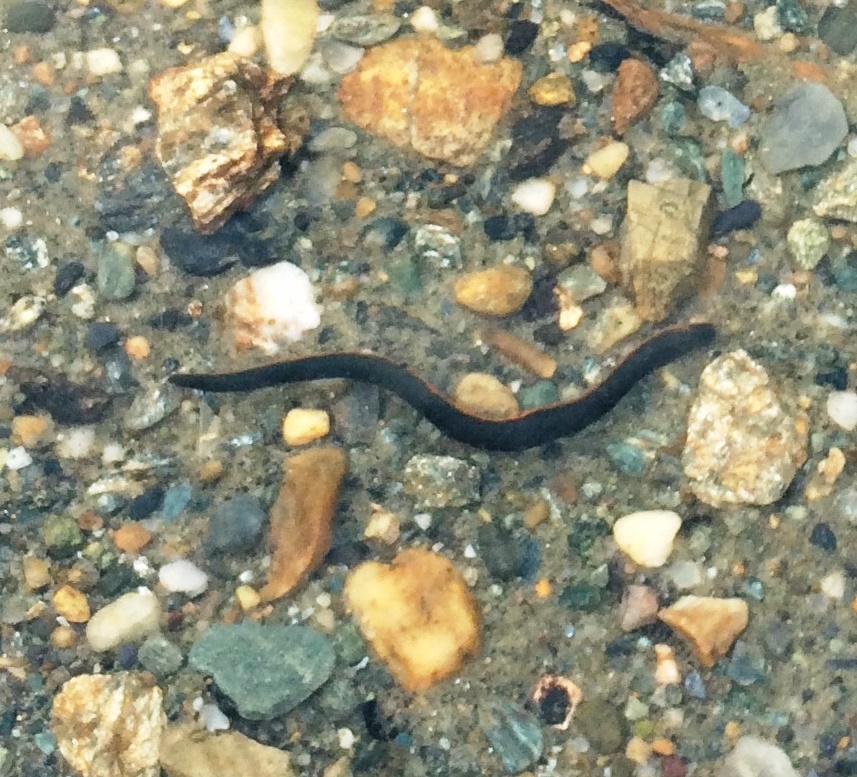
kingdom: Animalia
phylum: Annelida
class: Clitellata
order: Arhynchobdellida
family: Hirudinidae
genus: Macrobdella
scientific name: Macrobdella decora
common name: North american leech
